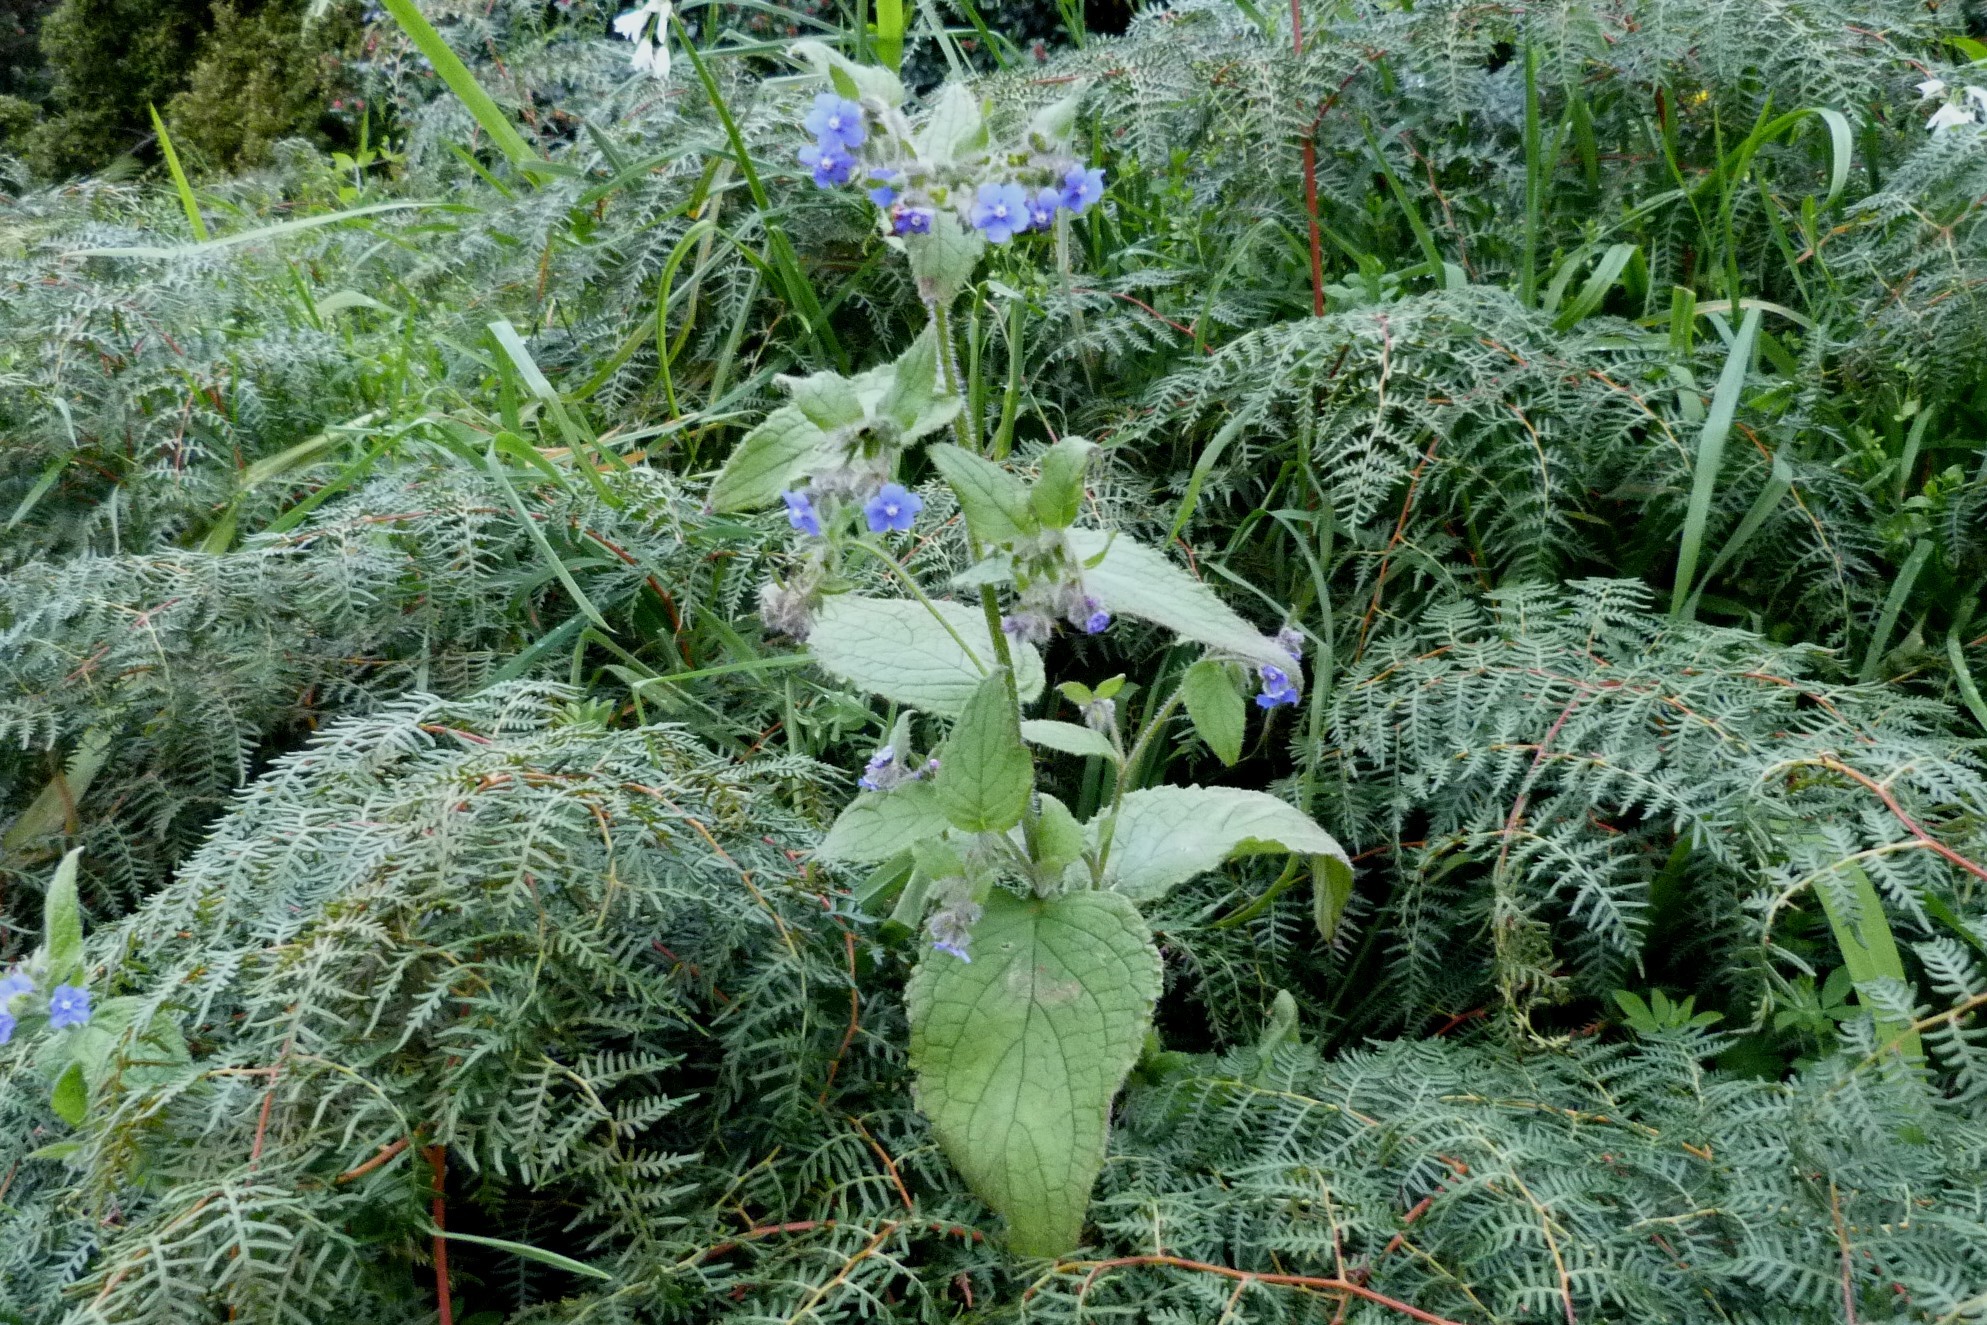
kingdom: Plantae
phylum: Tracheophyta
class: Magnoliopsida
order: Boraginales
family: Boraginaceae
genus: Pentaglottis
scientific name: Pentaglottis sempervirens
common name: Green alkanet
